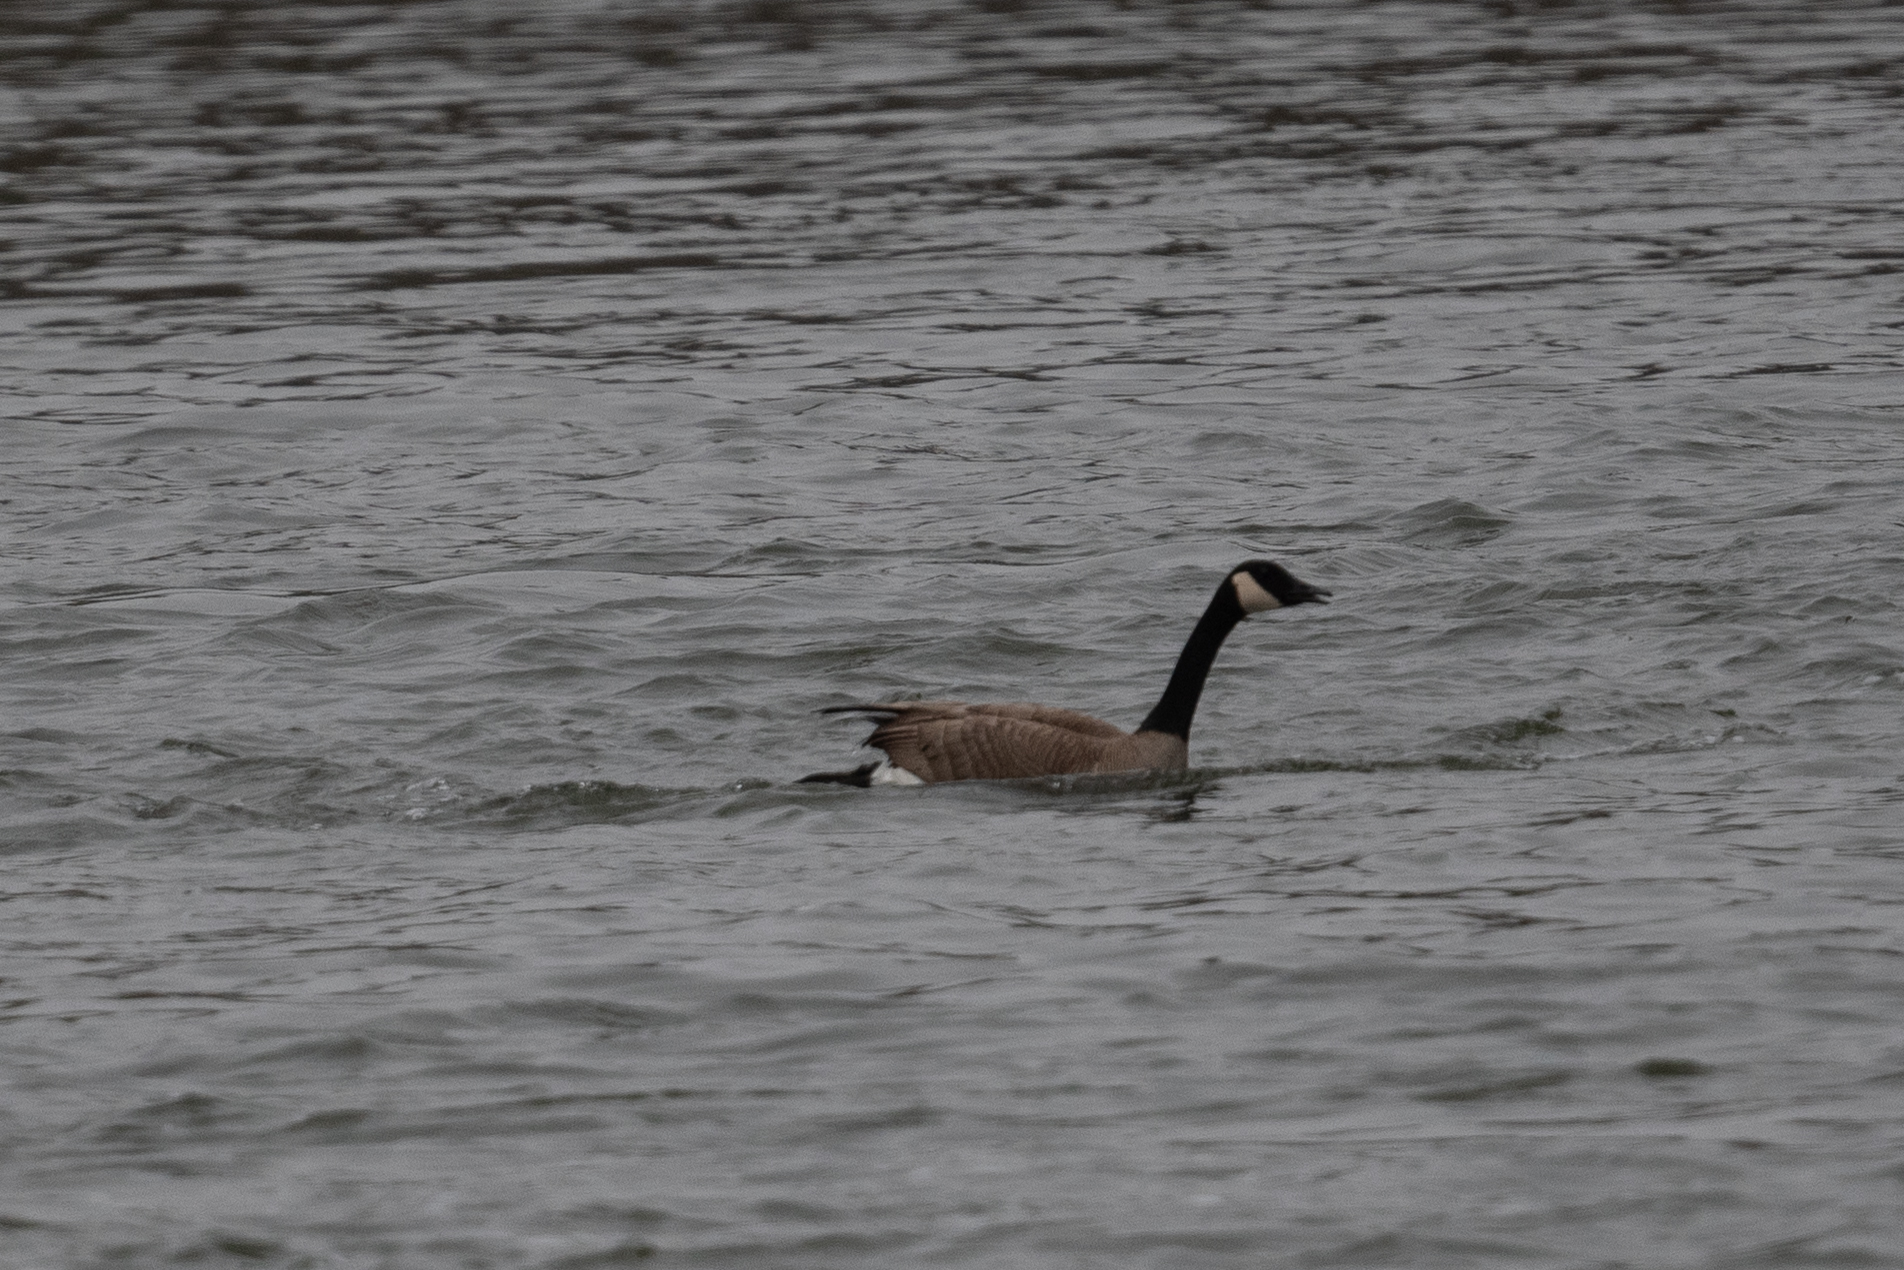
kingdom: Animalia
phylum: Chordata
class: Aves
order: Anseriformes
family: Anatidae
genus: Branta
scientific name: Branta canadensis
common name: Canada goose
